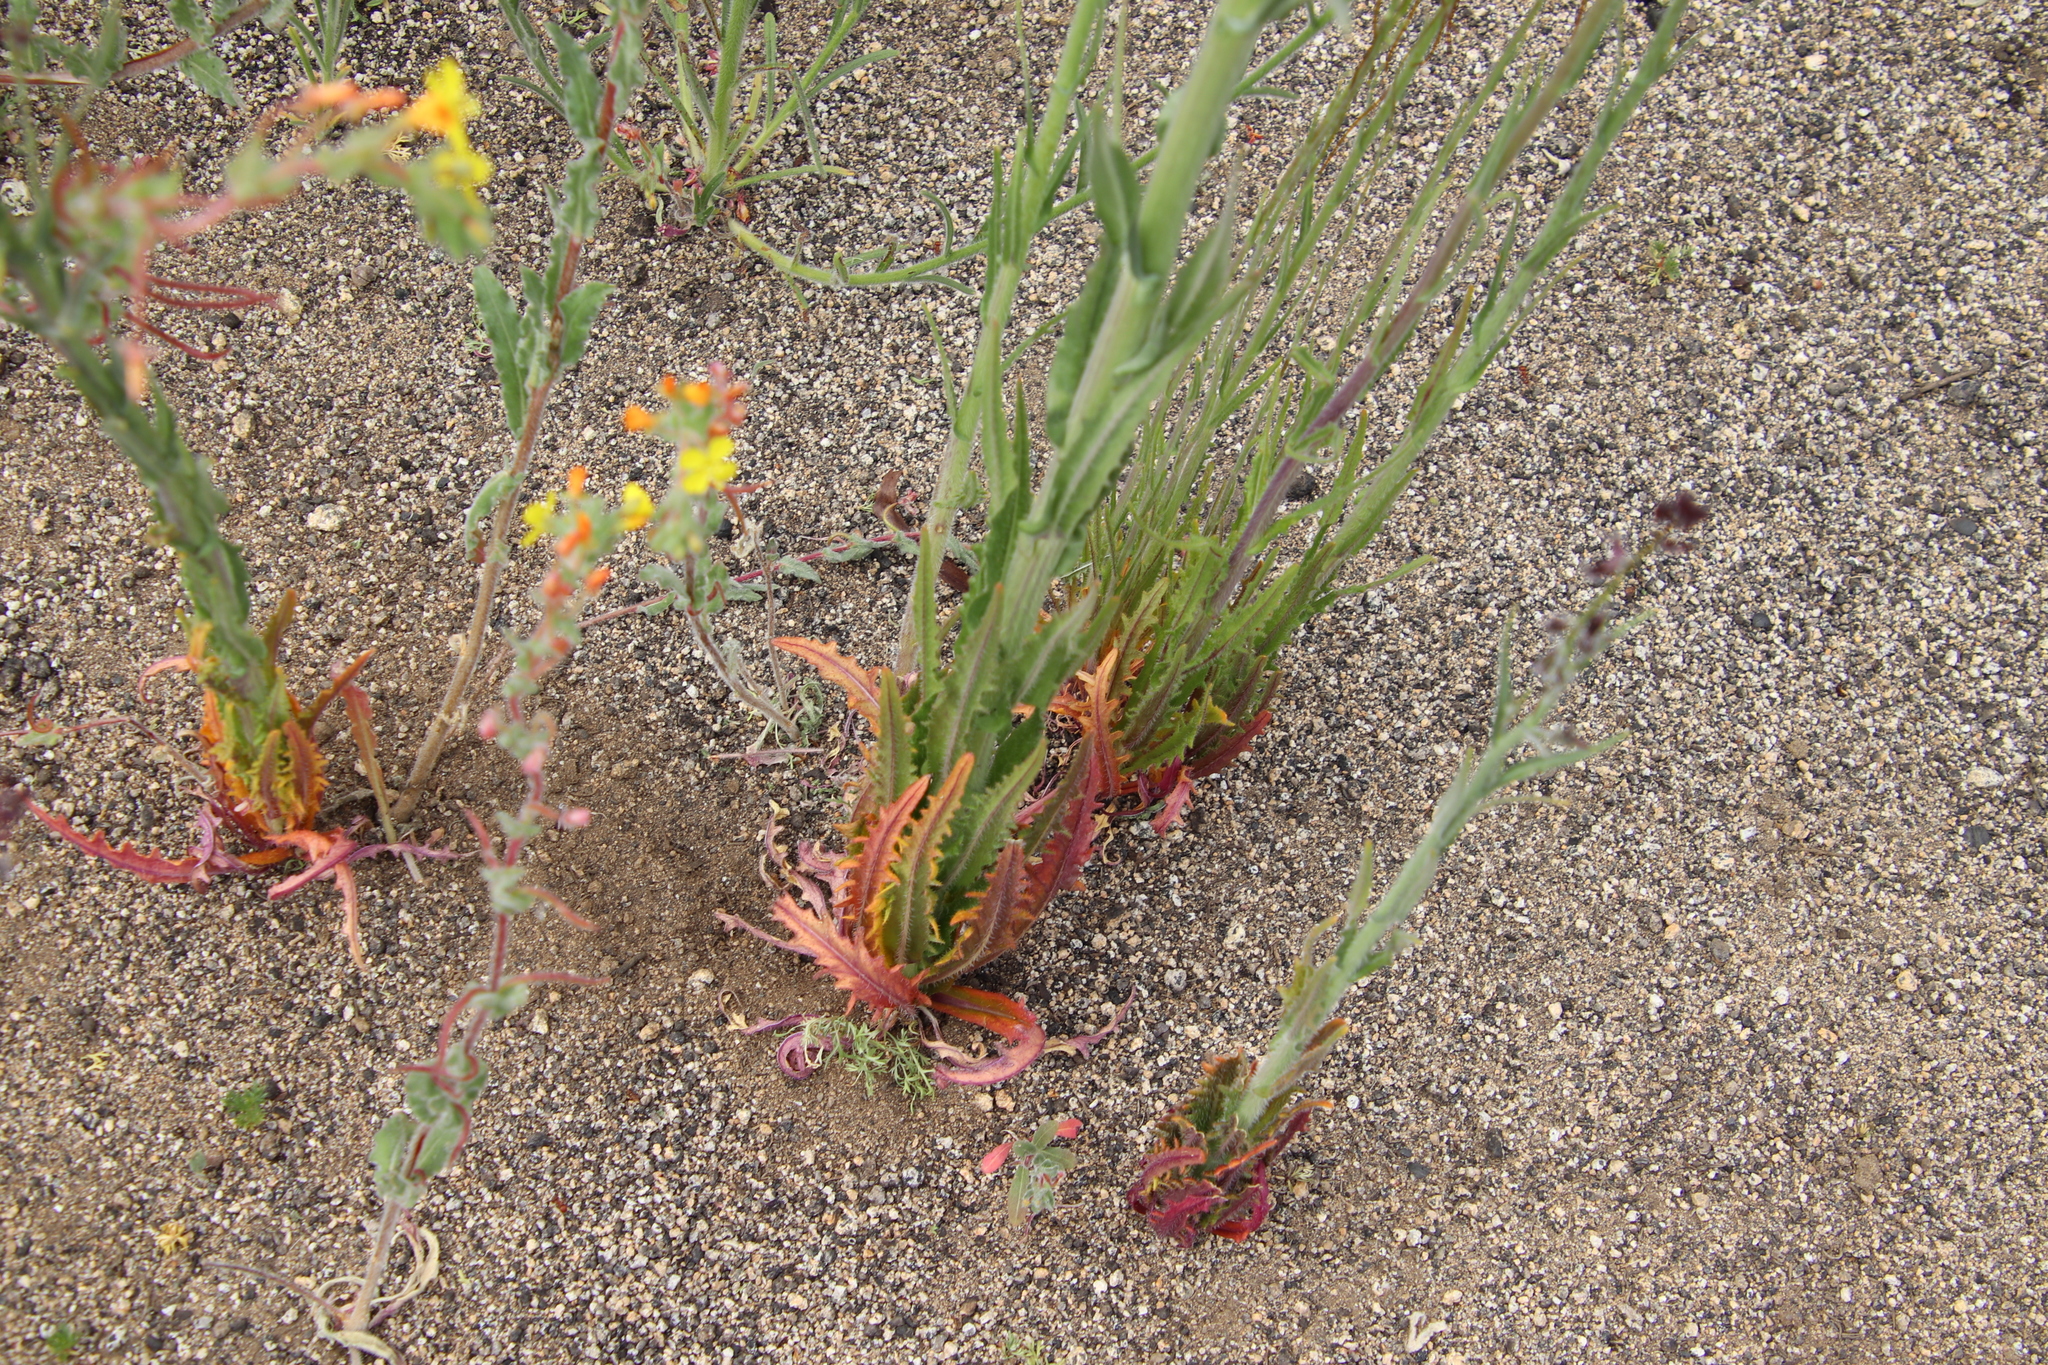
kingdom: Plantae
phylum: Tracheophyta
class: Magnoliopsida
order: Brassicales
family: Brassicaceae
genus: Streptanthus
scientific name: Streptanthus heterophyllus
